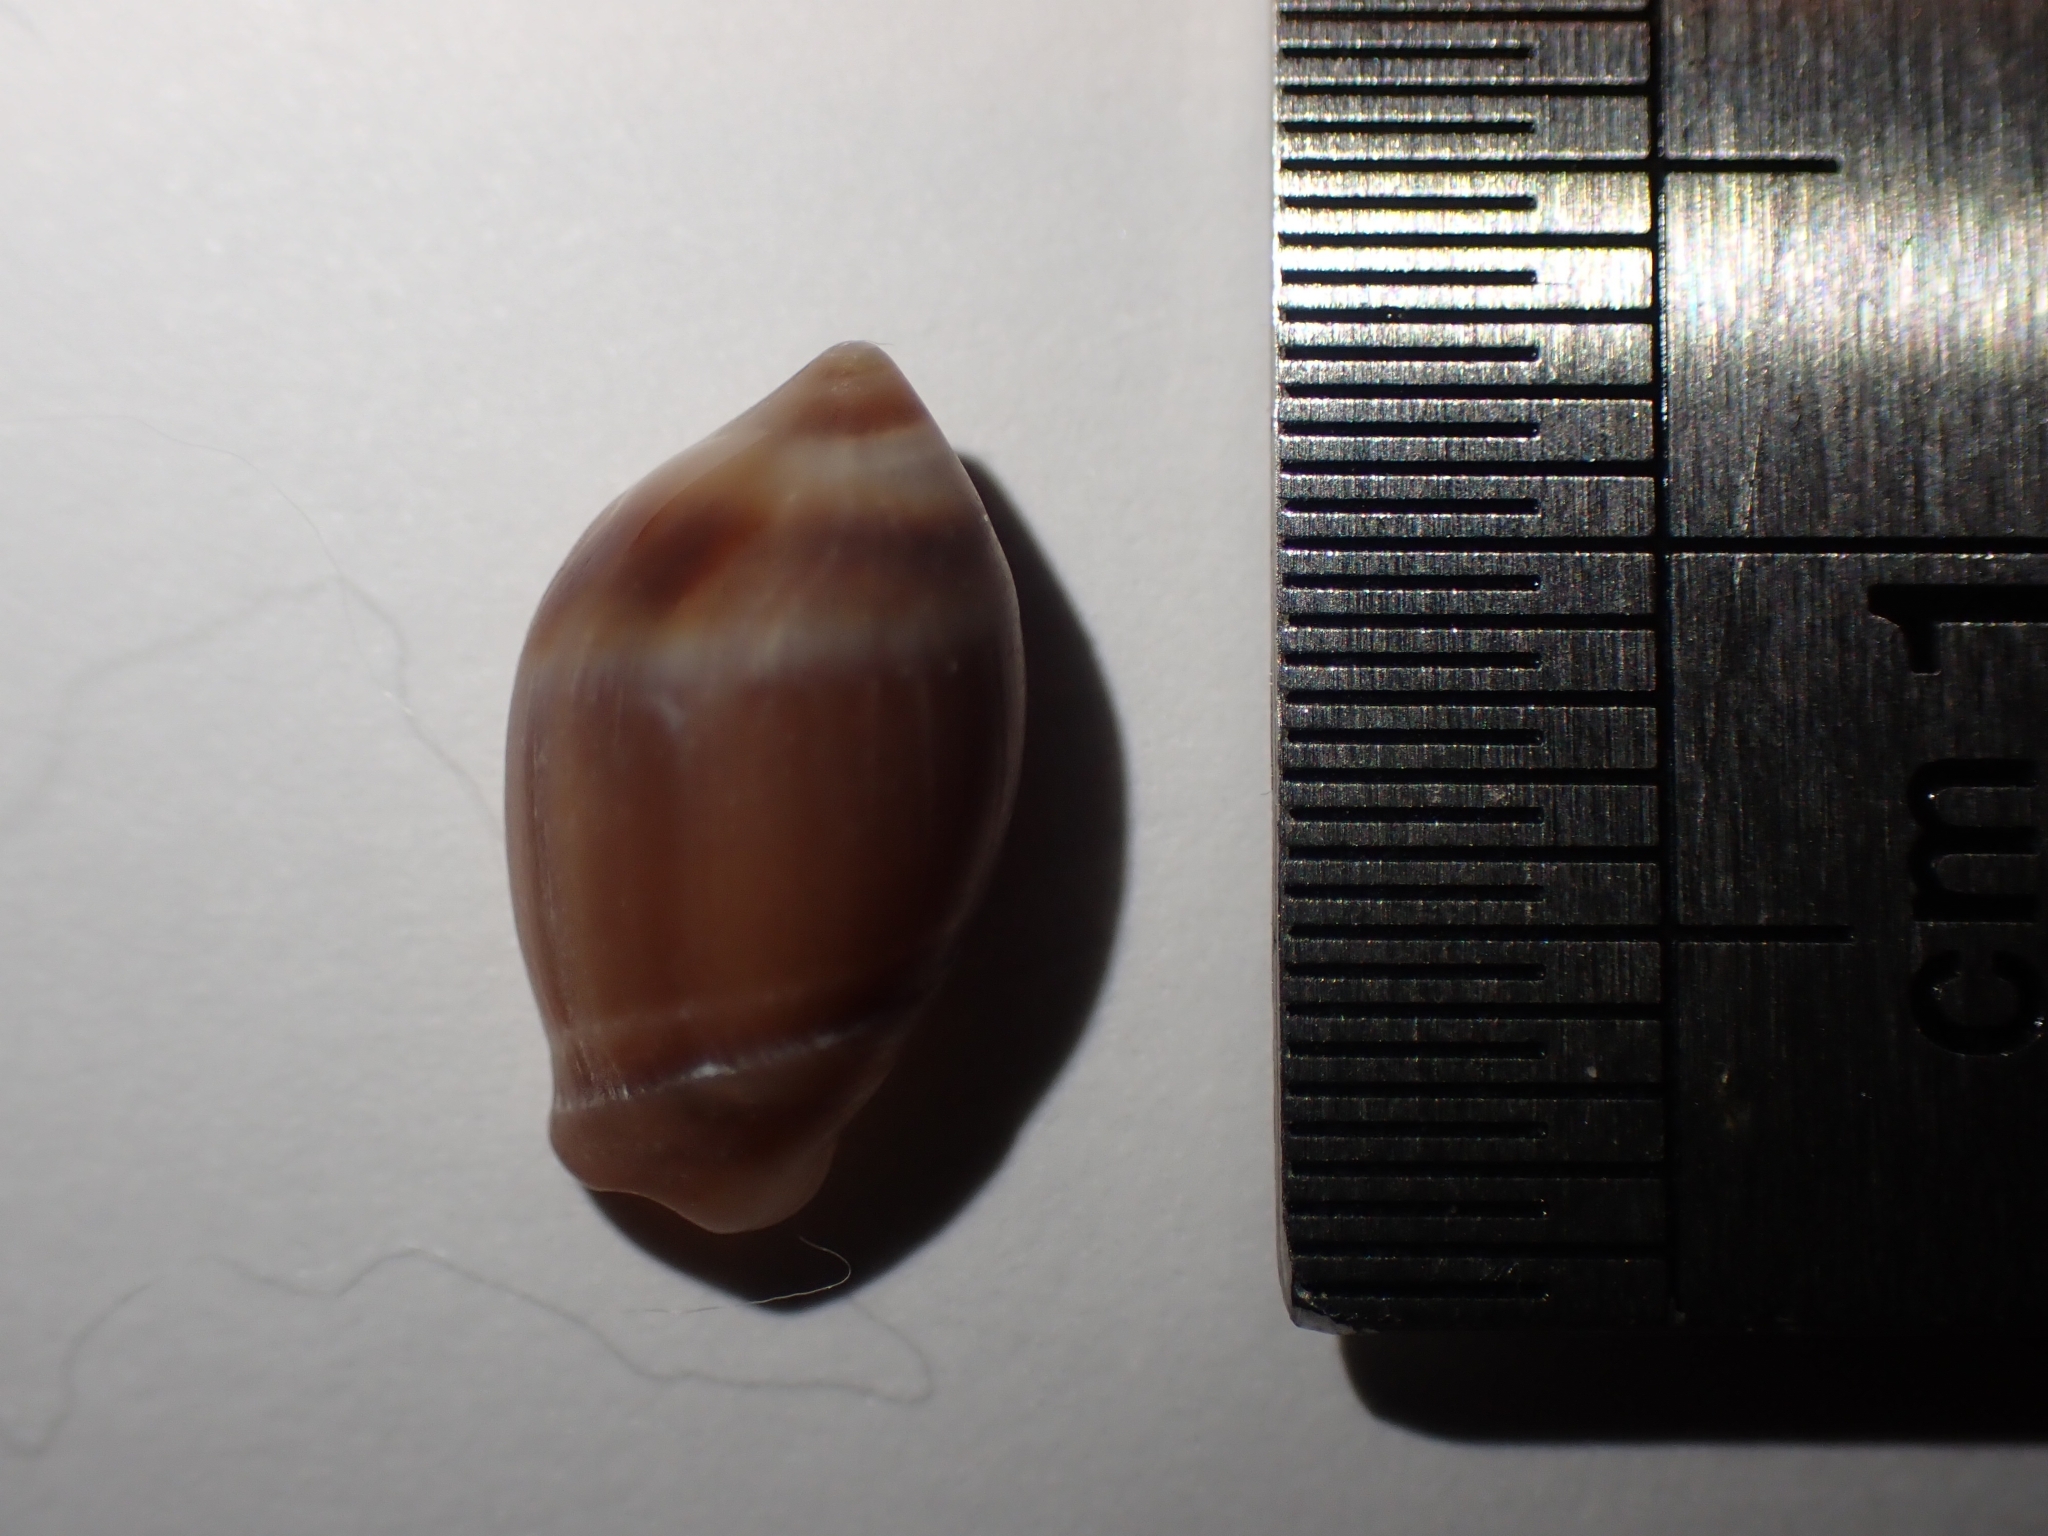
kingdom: Animalia
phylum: Mollusca
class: Gastropoda
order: Neogastropoda
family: Ancillariidae
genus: Amalda
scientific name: Amalda depressa
